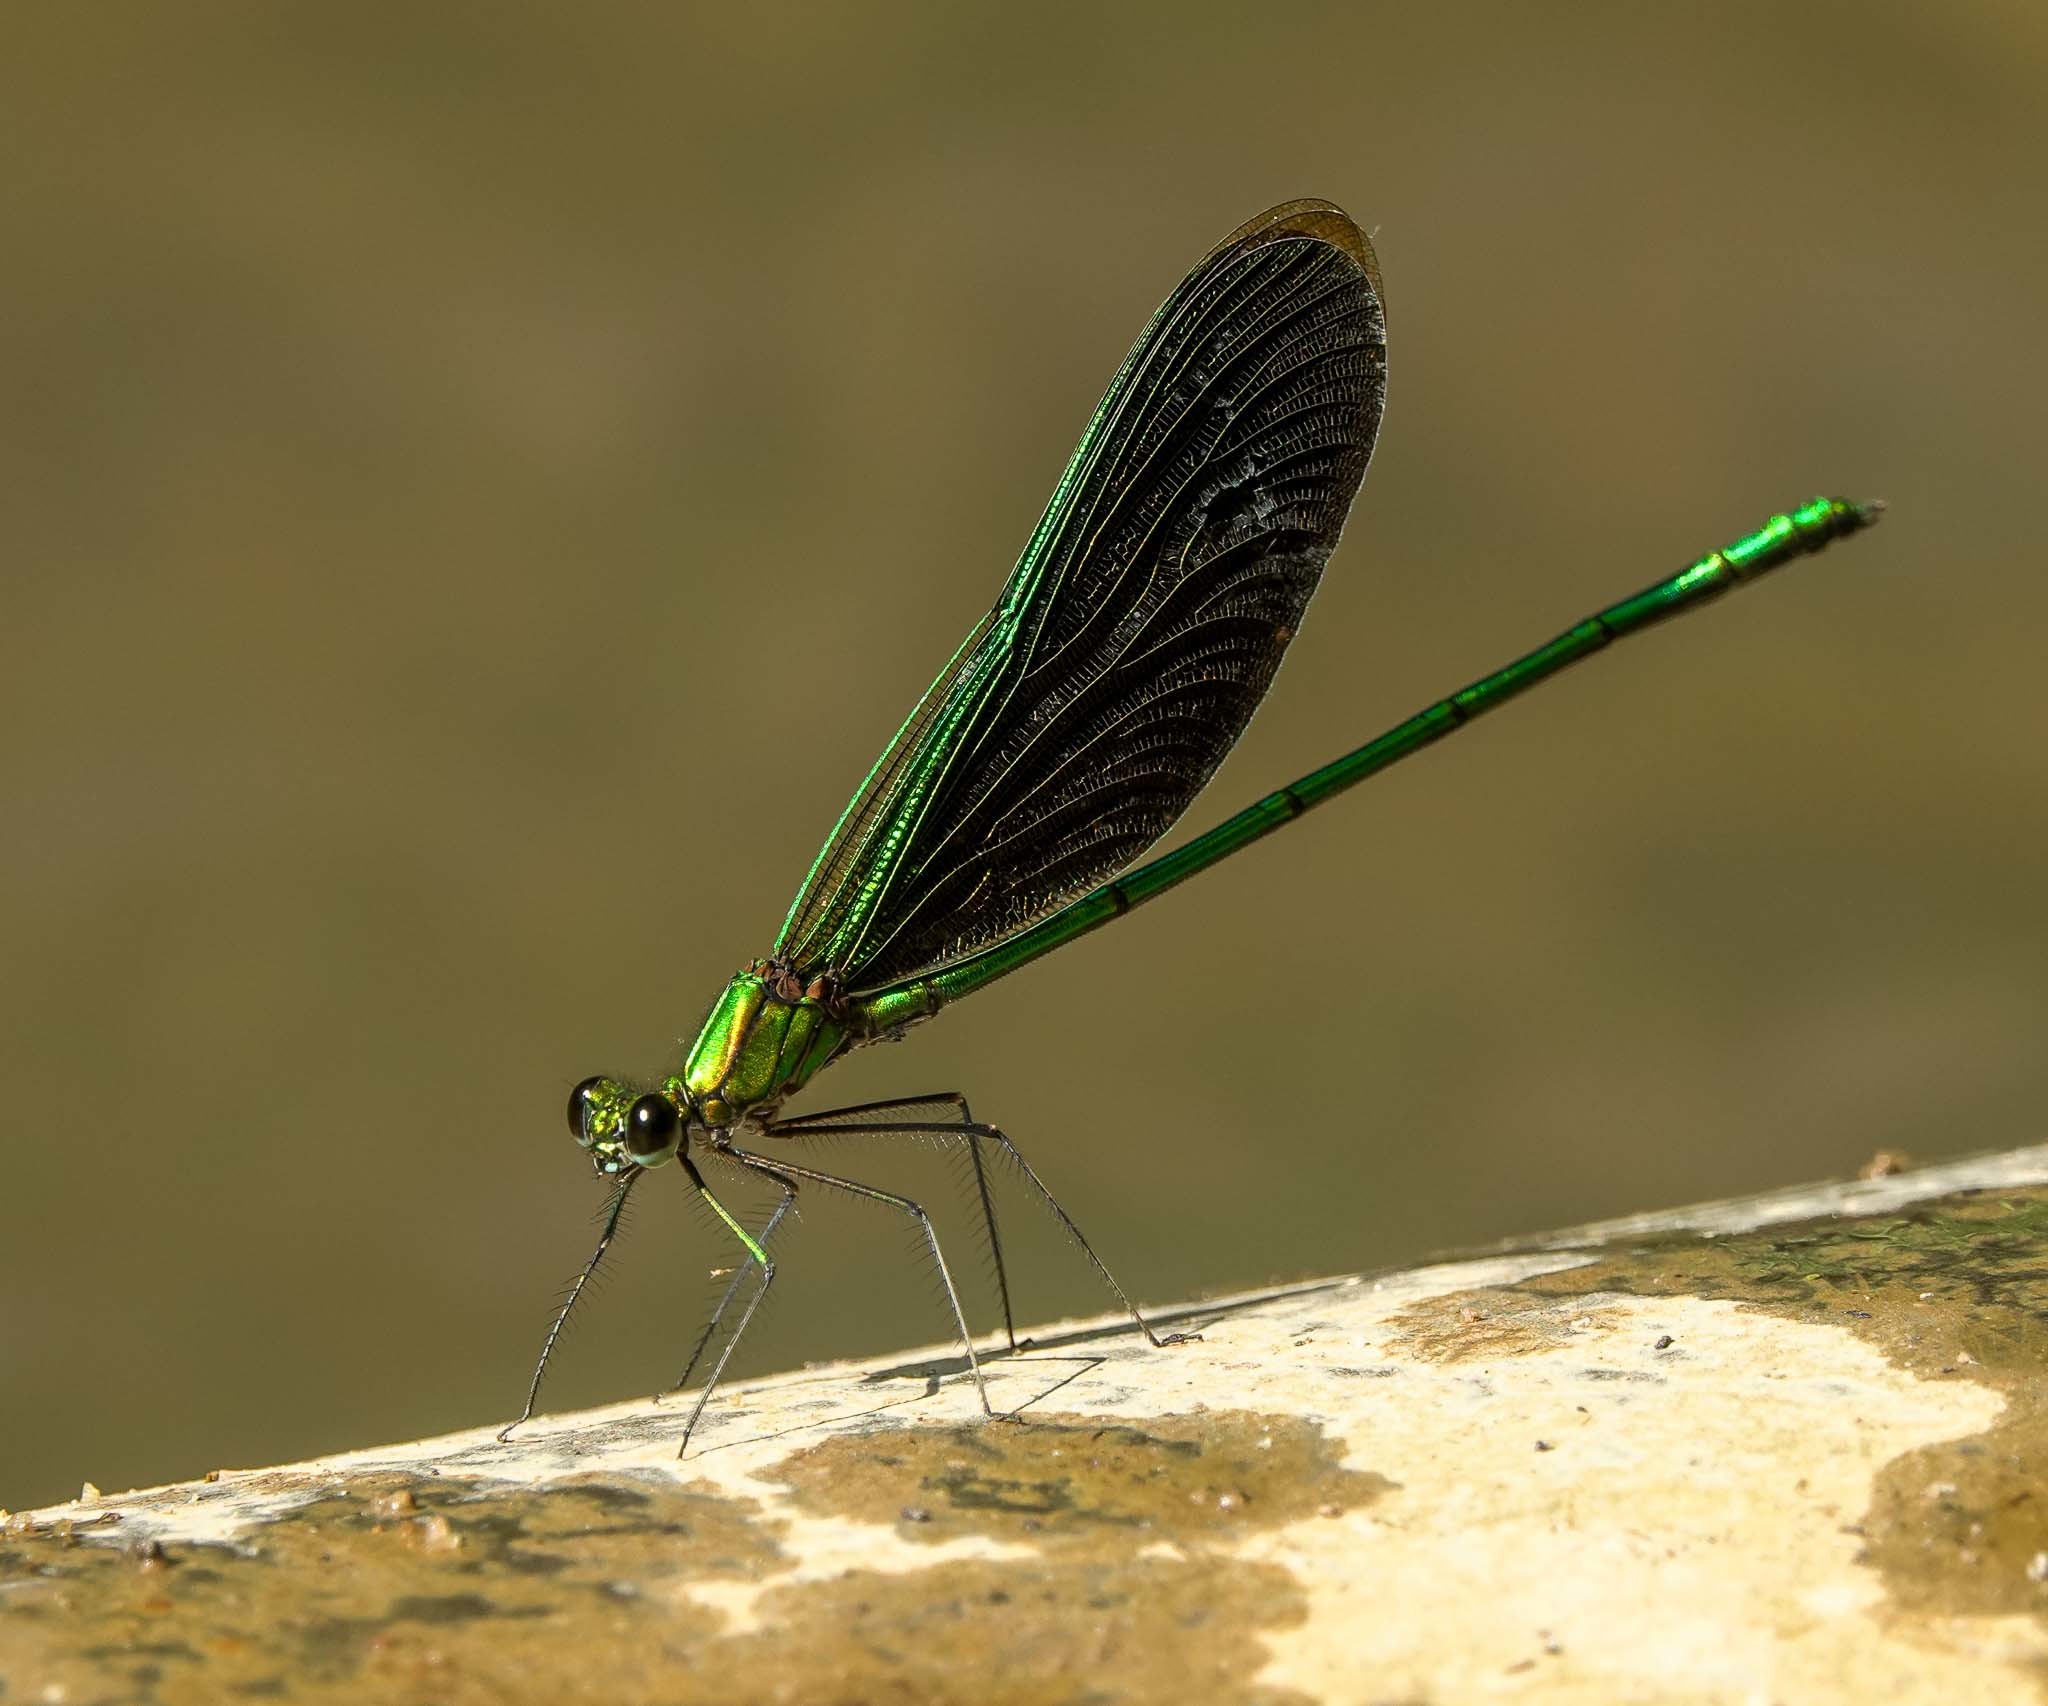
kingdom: Animalia
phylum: Arthropoda
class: Insecta
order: Odonata
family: Calopterygidae
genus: Neurobasis
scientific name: Neurobasis chinensis
